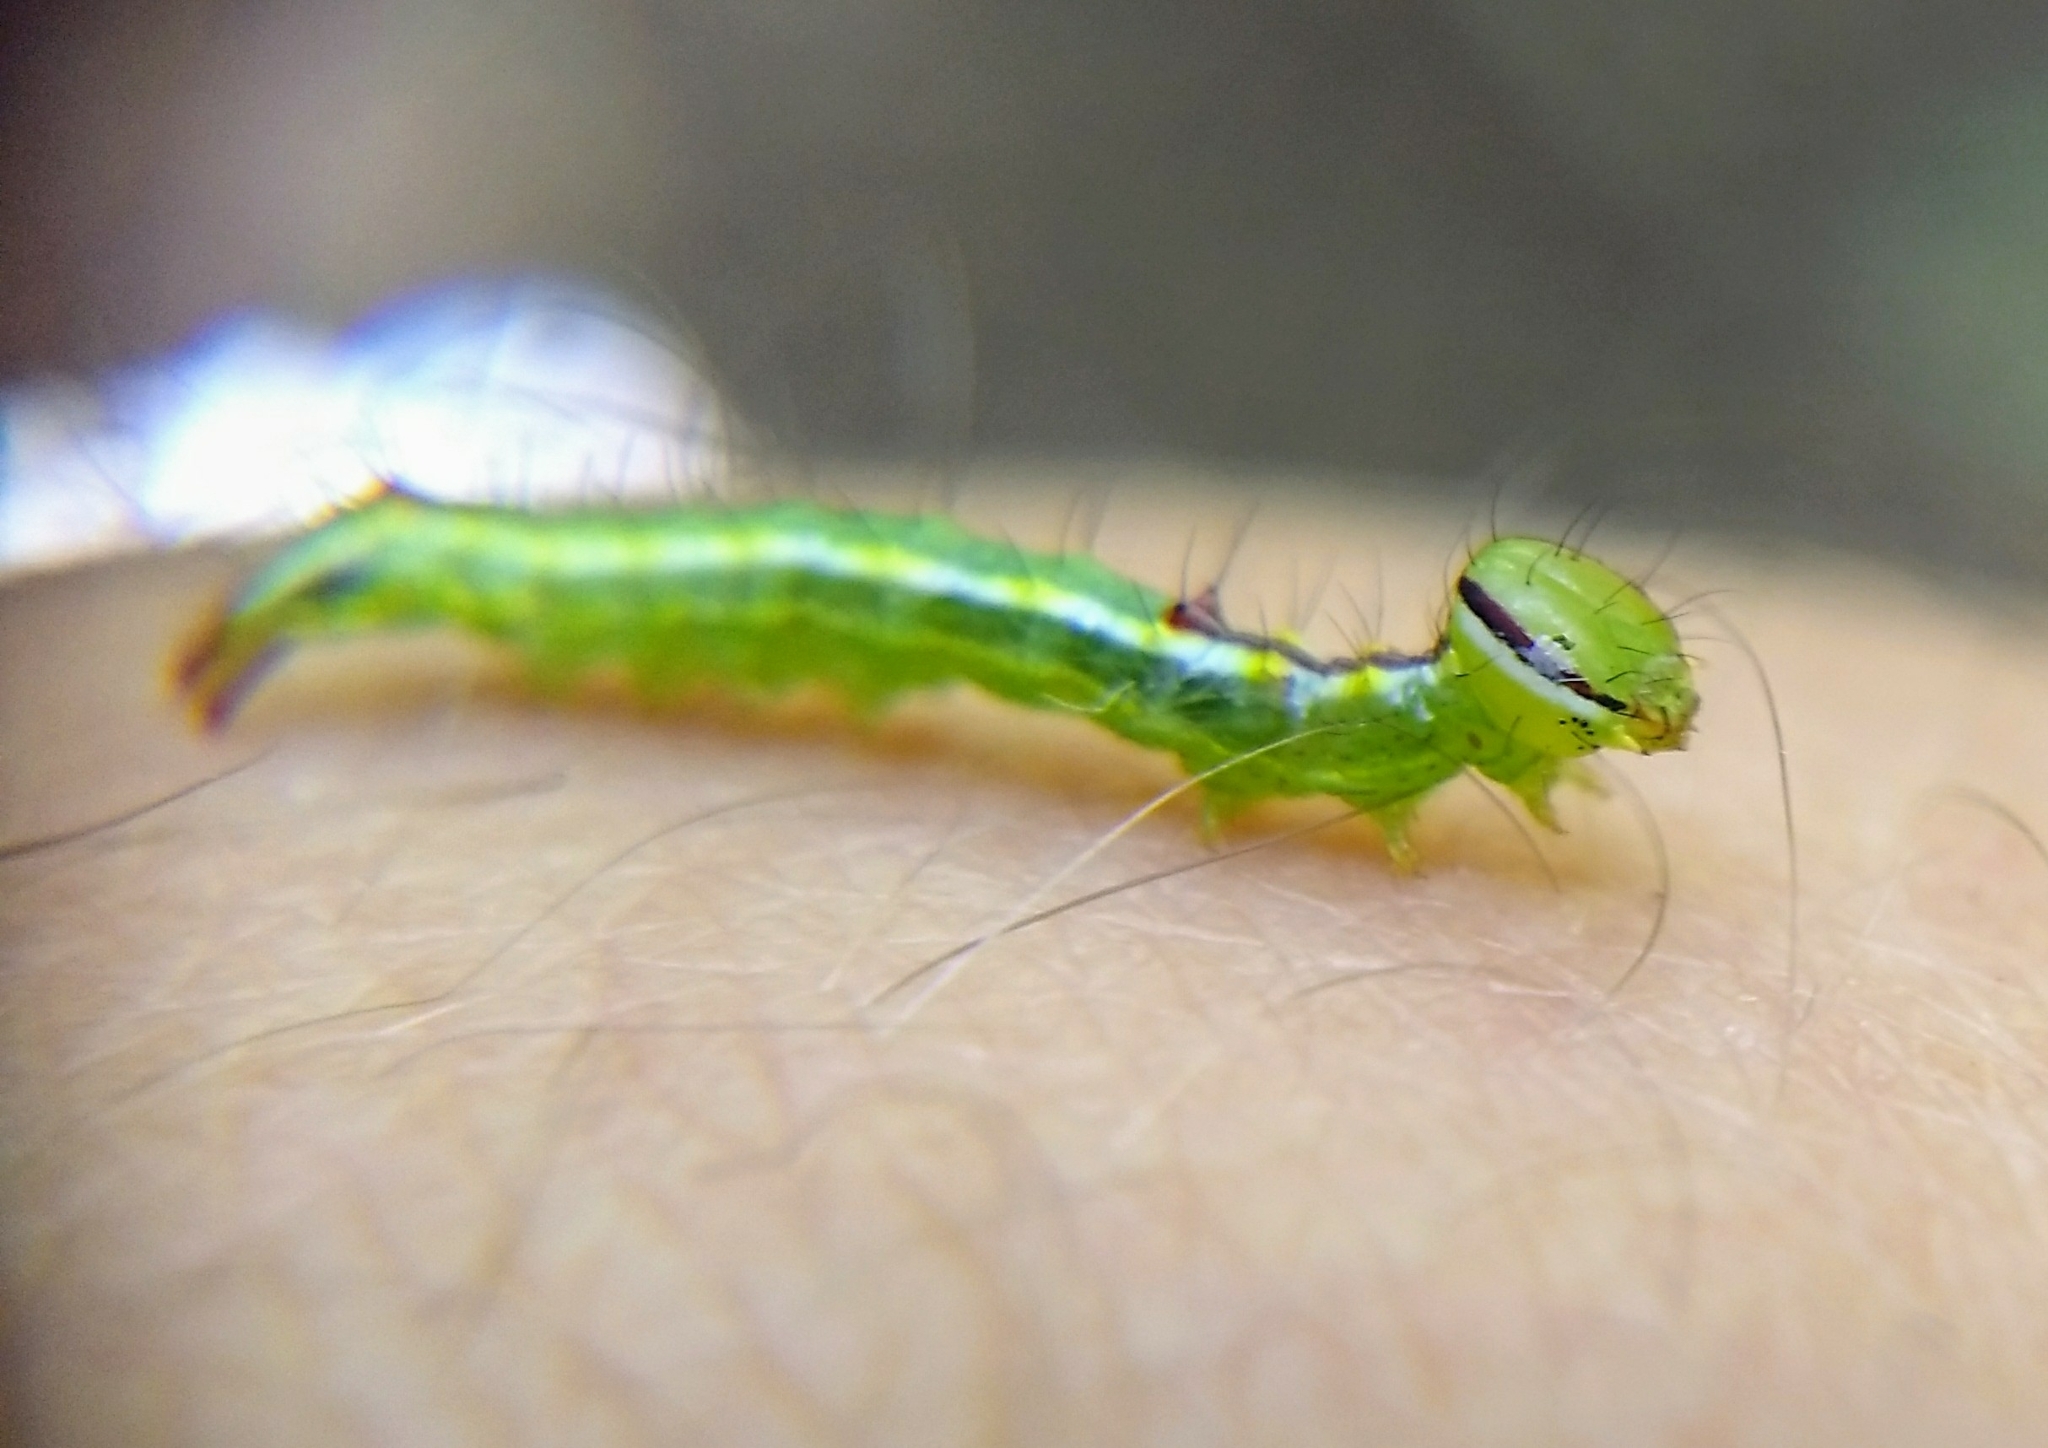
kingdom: Animalia
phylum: Arthropoda
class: Insecta
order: Lepidoptera
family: Notodontidae
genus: Lochmaeus
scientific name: Lochmaeus manteo
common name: Variable oakleaf caterpillar moth
